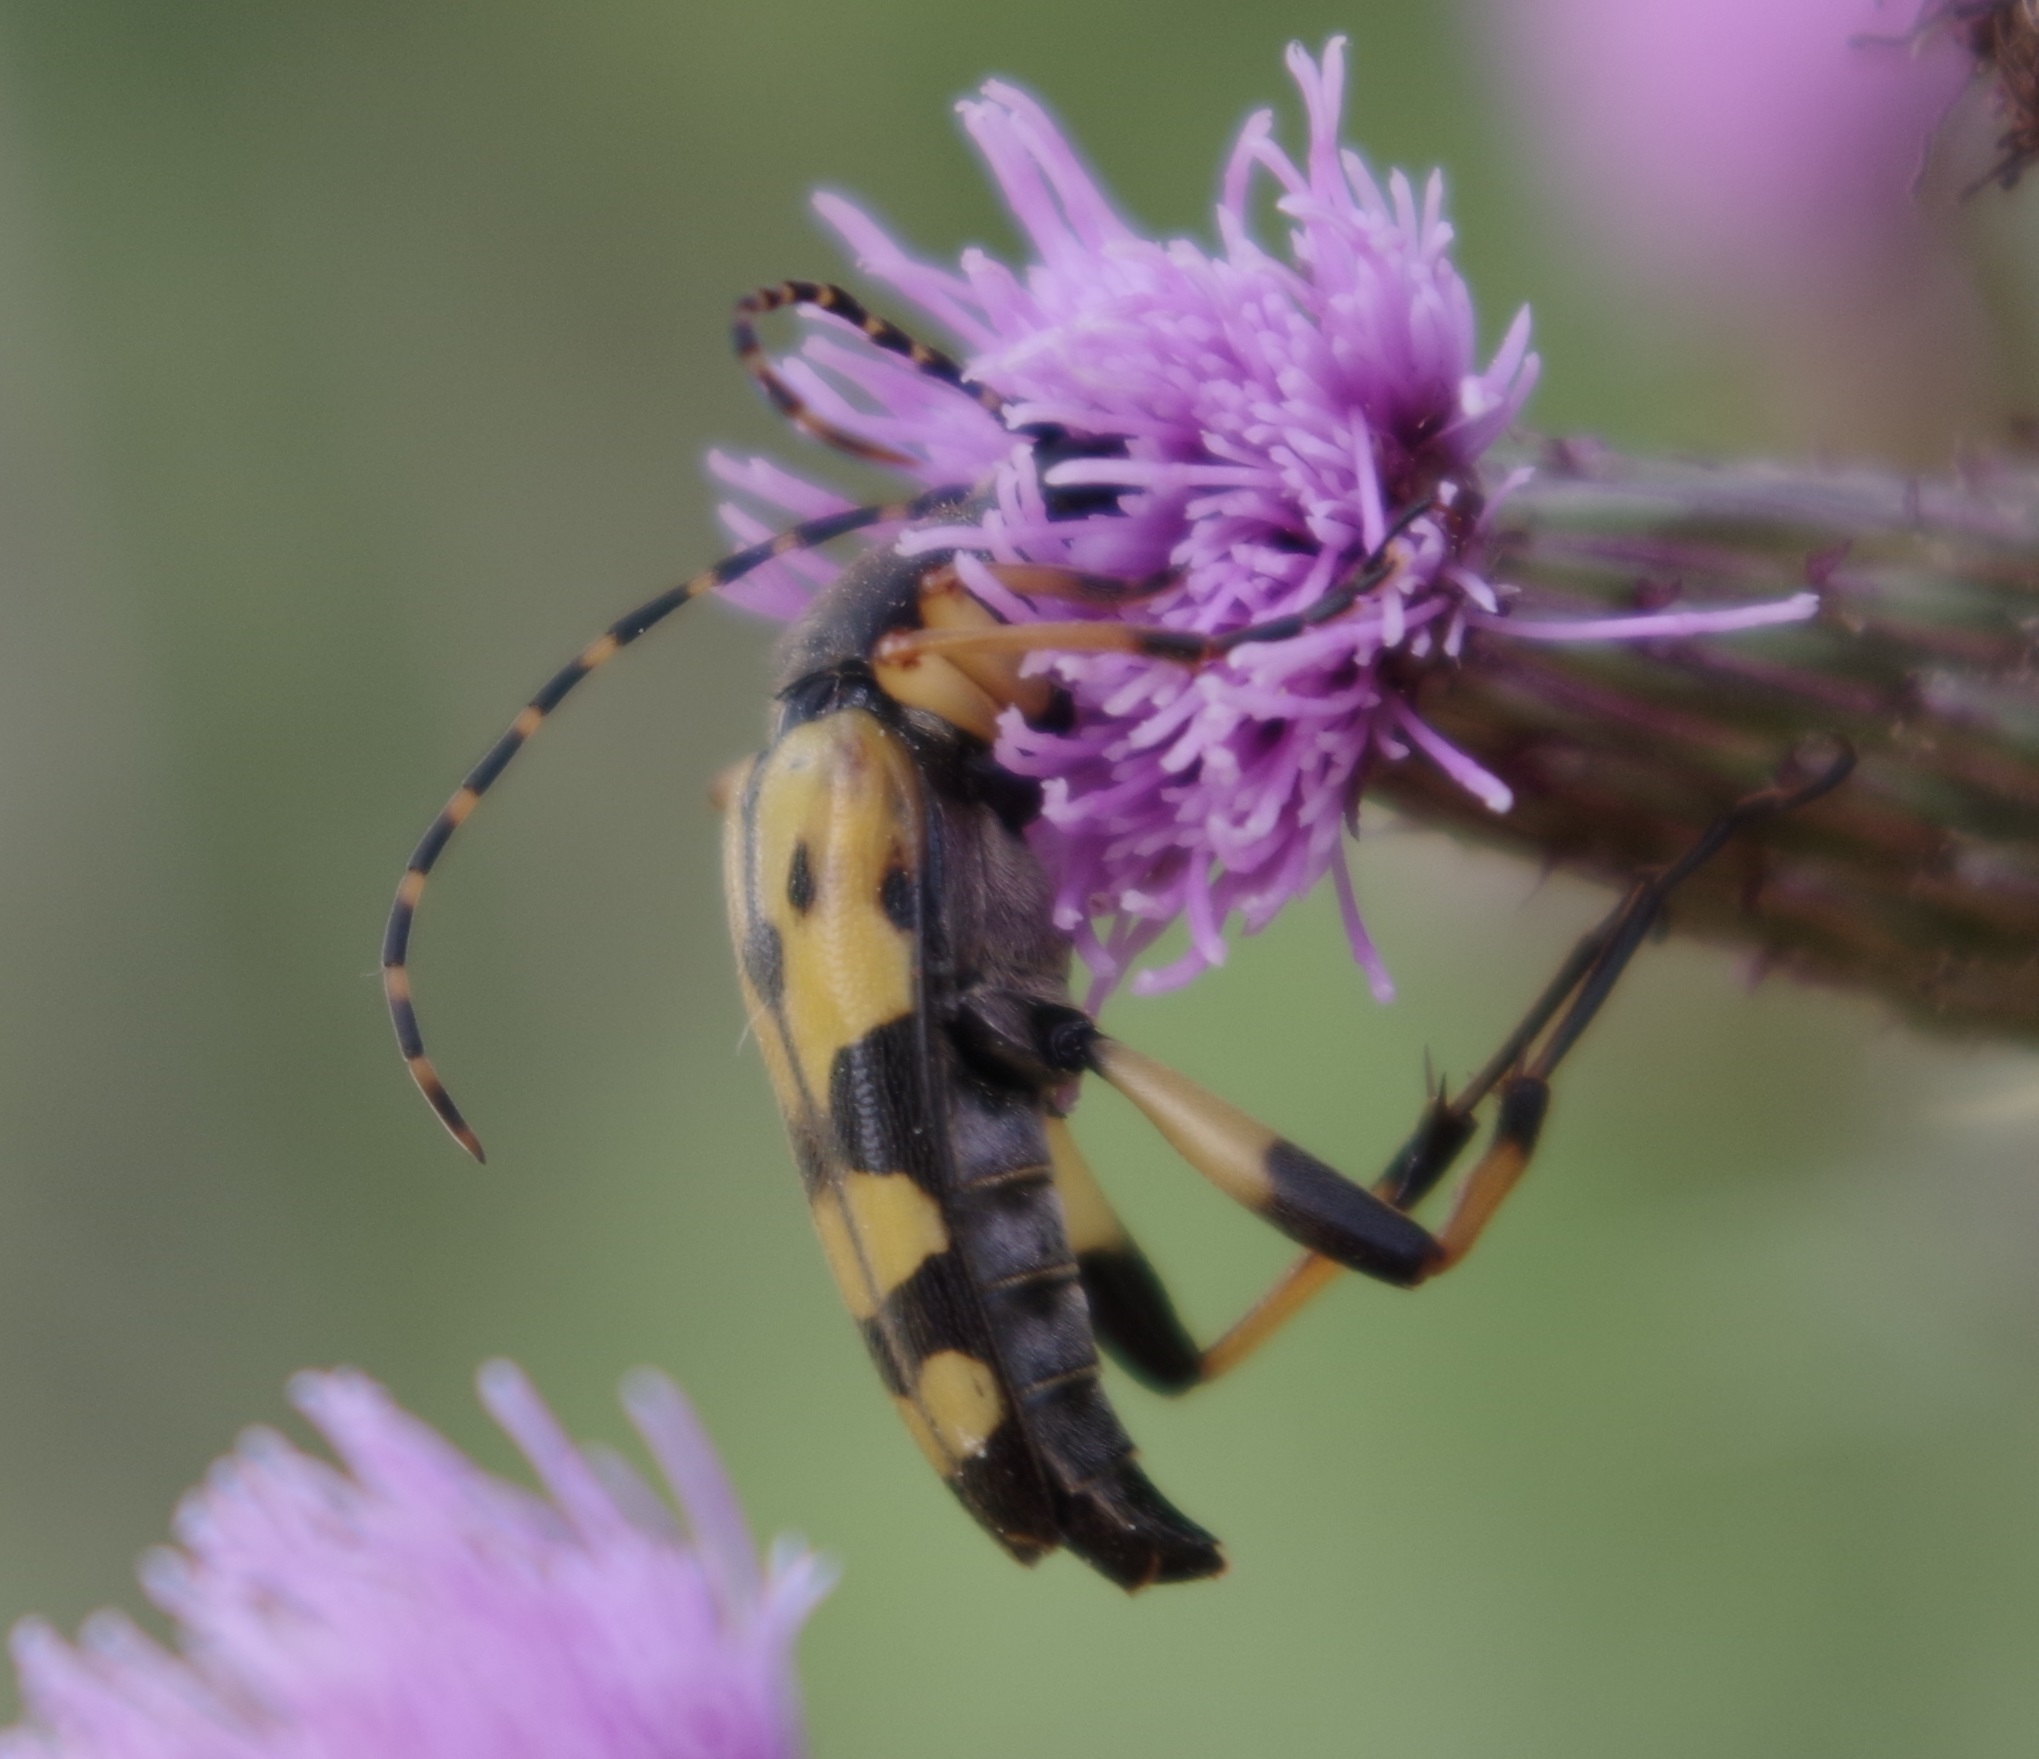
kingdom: Animalia
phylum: Arthropoda
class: Insecta
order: Coleoptera
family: Cerambycidae
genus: Rutpela
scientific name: Rutpela maculata
